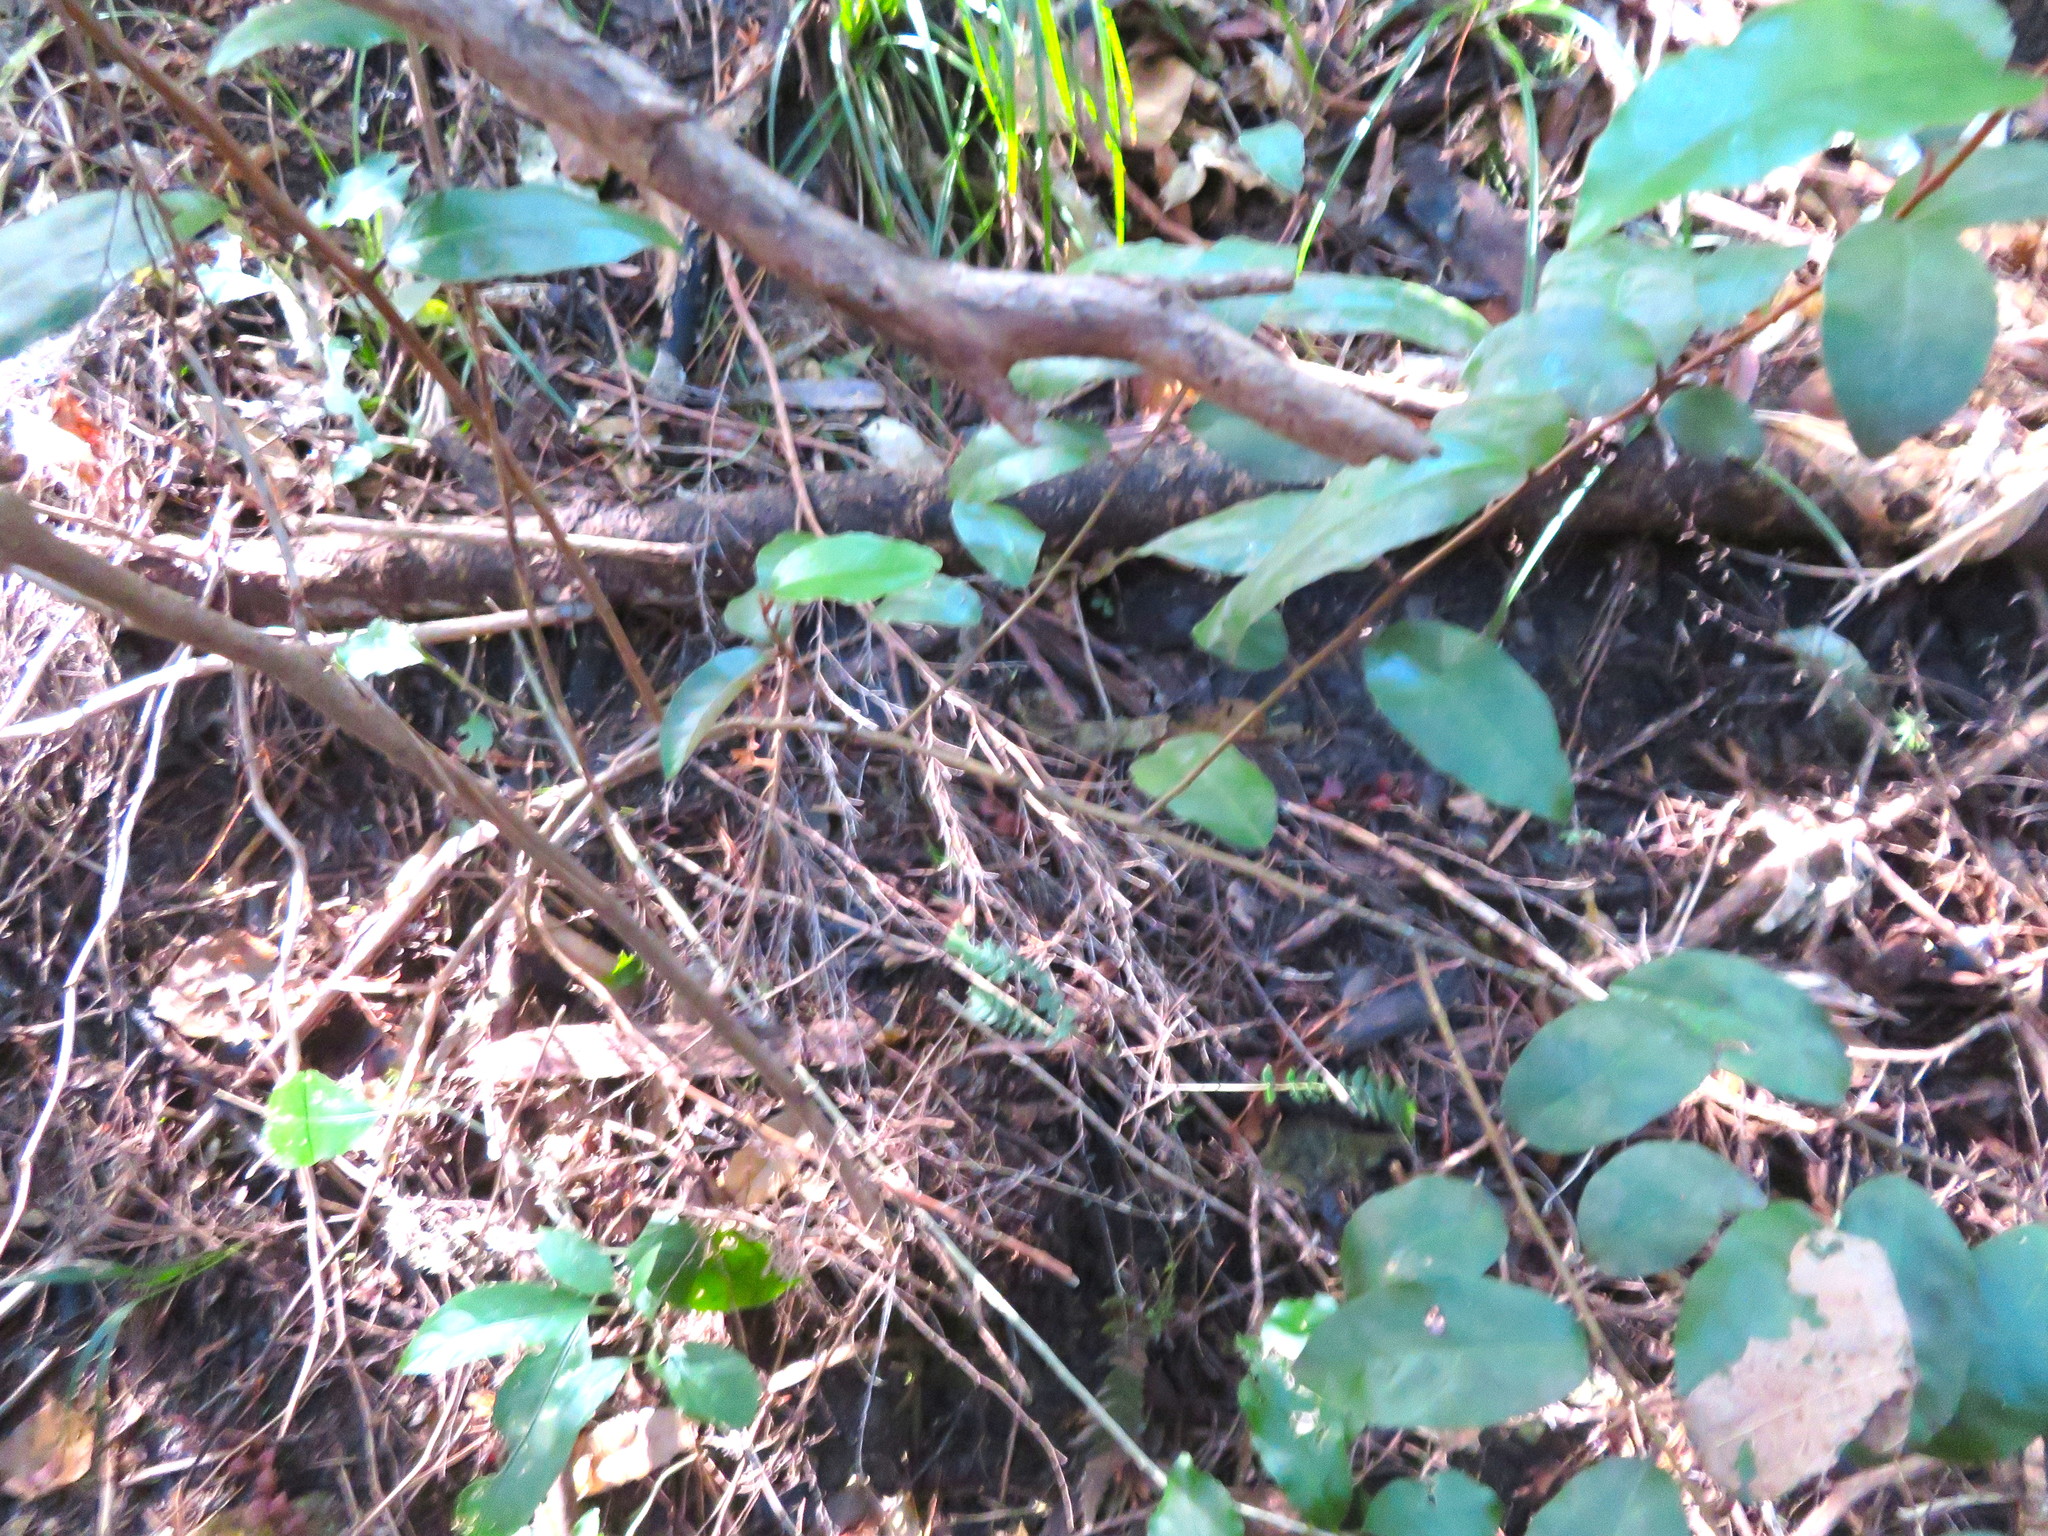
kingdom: Plantae
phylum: Tracheophyta
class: Magnoliopsida
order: Rosales
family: Elaeagnaceae
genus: Elaeagnus
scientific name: Elaeagnus reflexa
